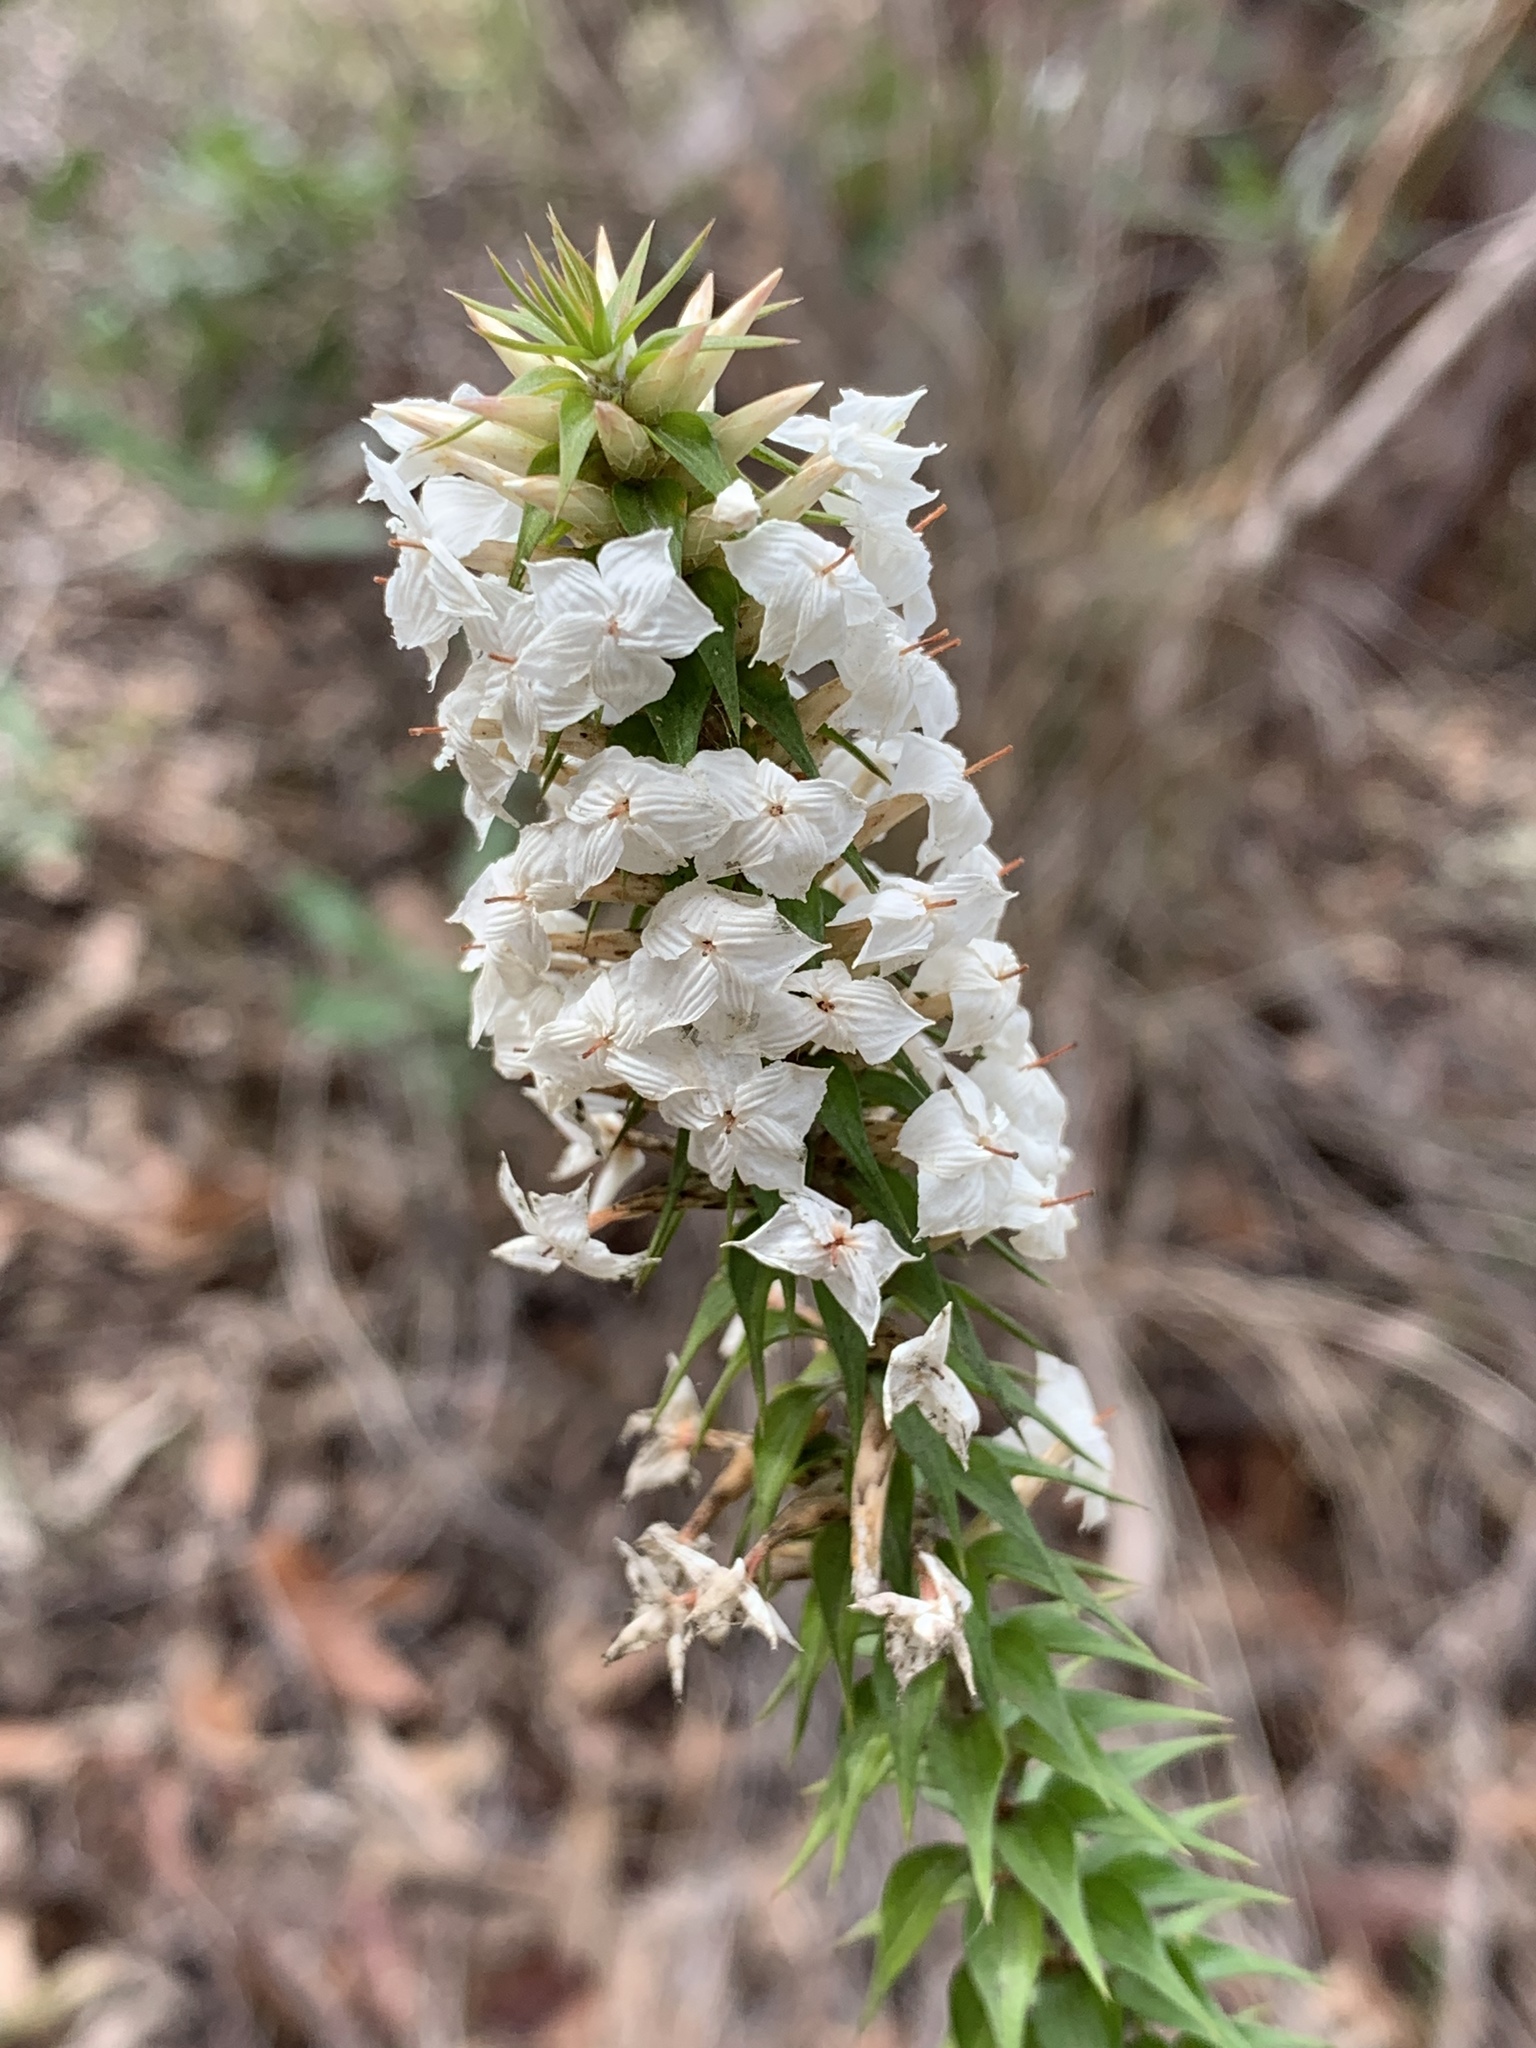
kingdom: Plantae
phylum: Tracheophyta
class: Magnoliopsida
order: Ericales
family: Ericaceae
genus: Woollsia
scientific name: Woollsia pungens
